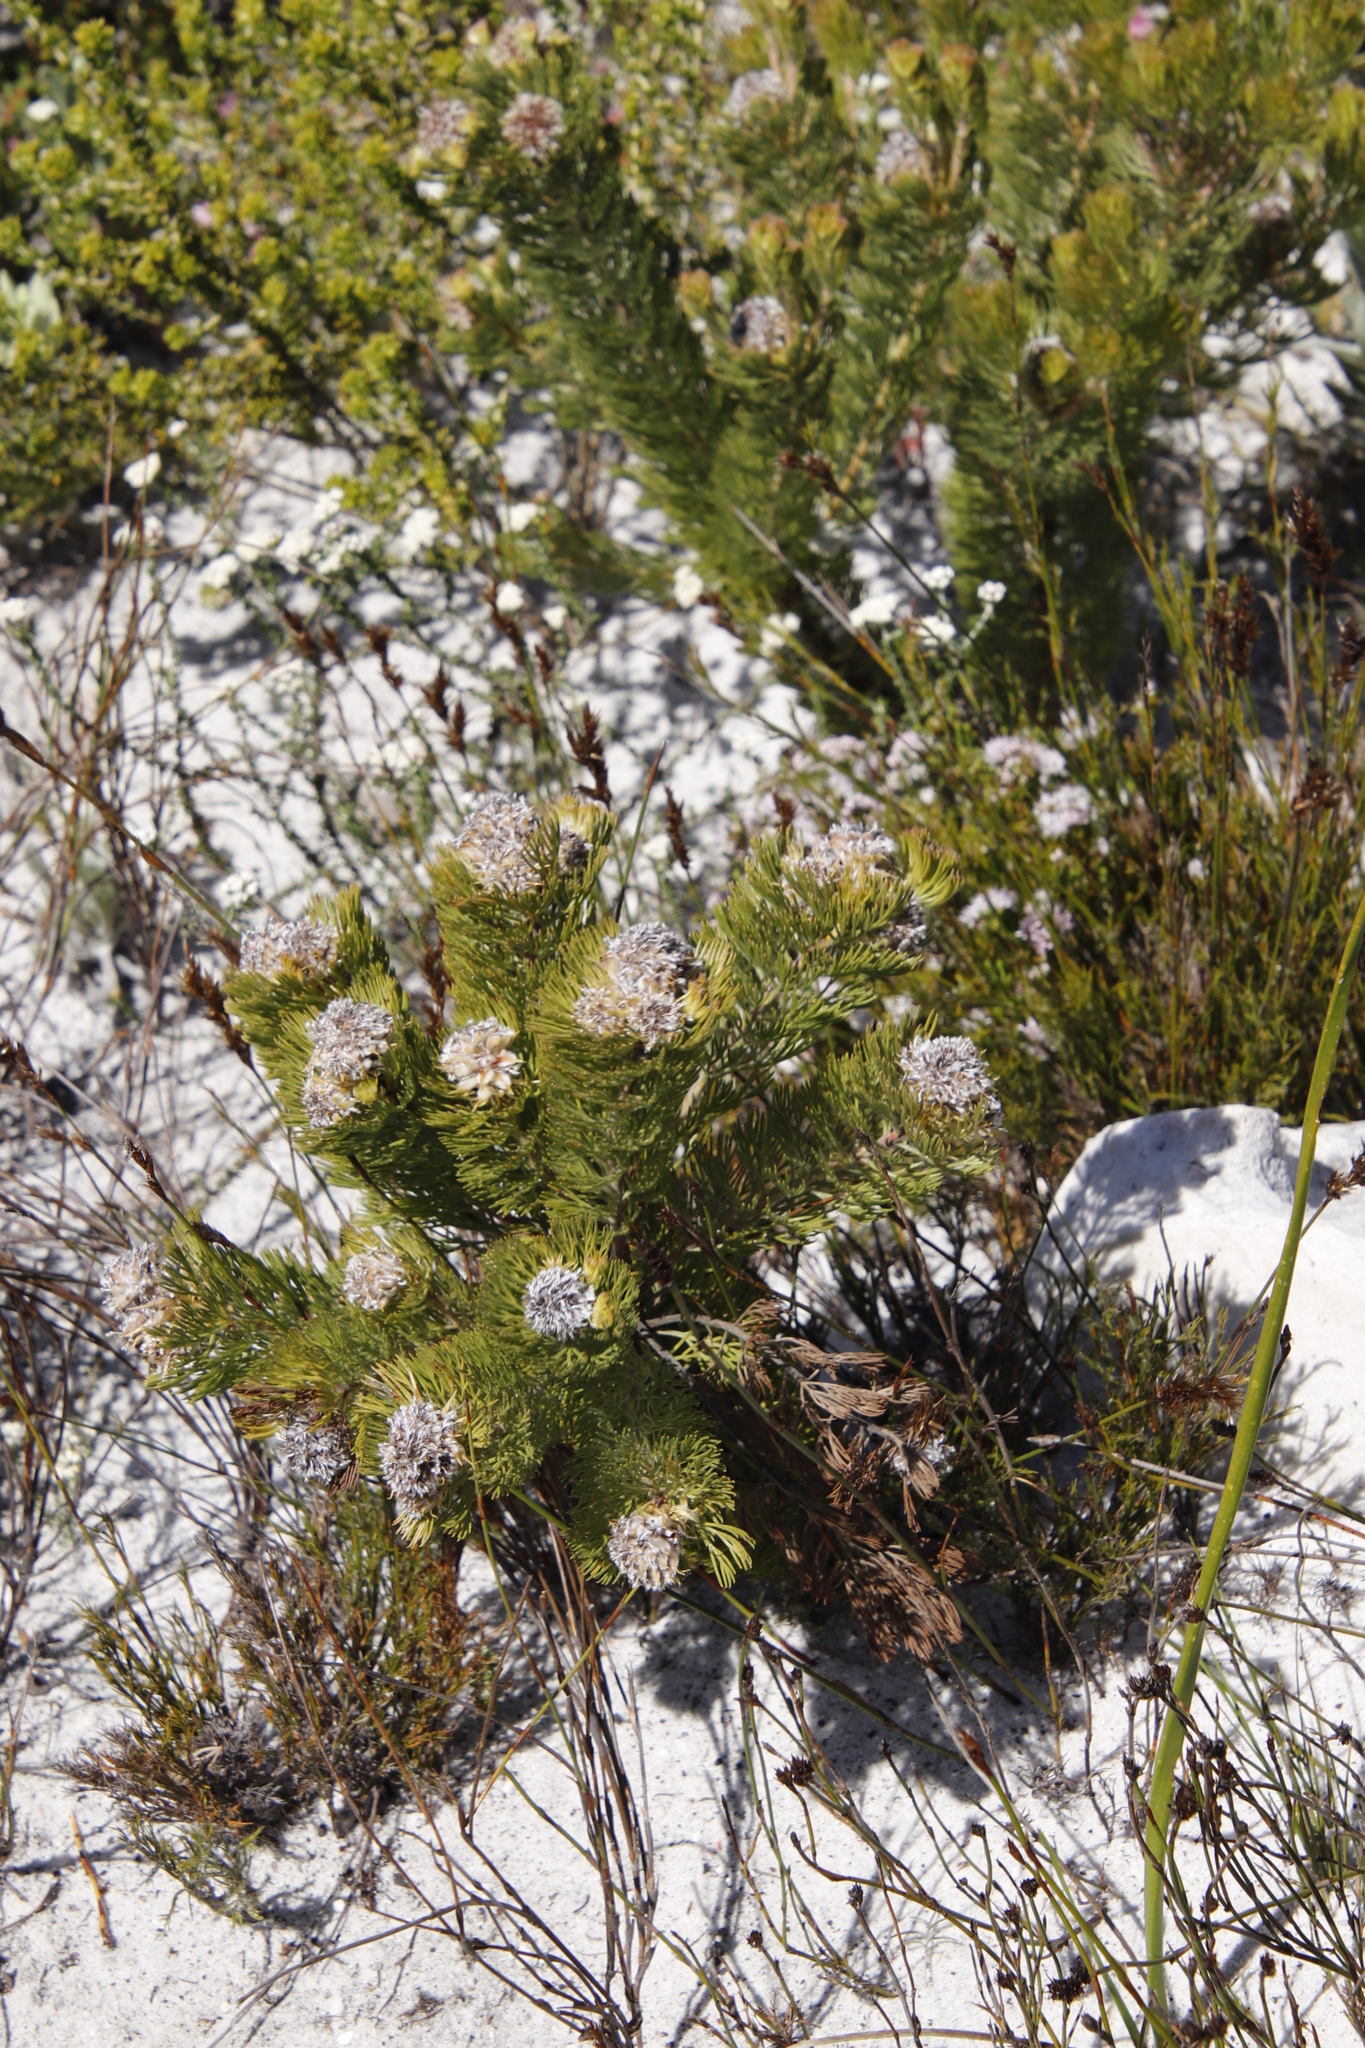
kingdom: Plantae
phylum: Tracheophyta
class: Magnoliopsida
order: Proteales
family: Proteaceae
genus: Serruria
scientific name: Serruria villosa
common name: Golden spiderhead
